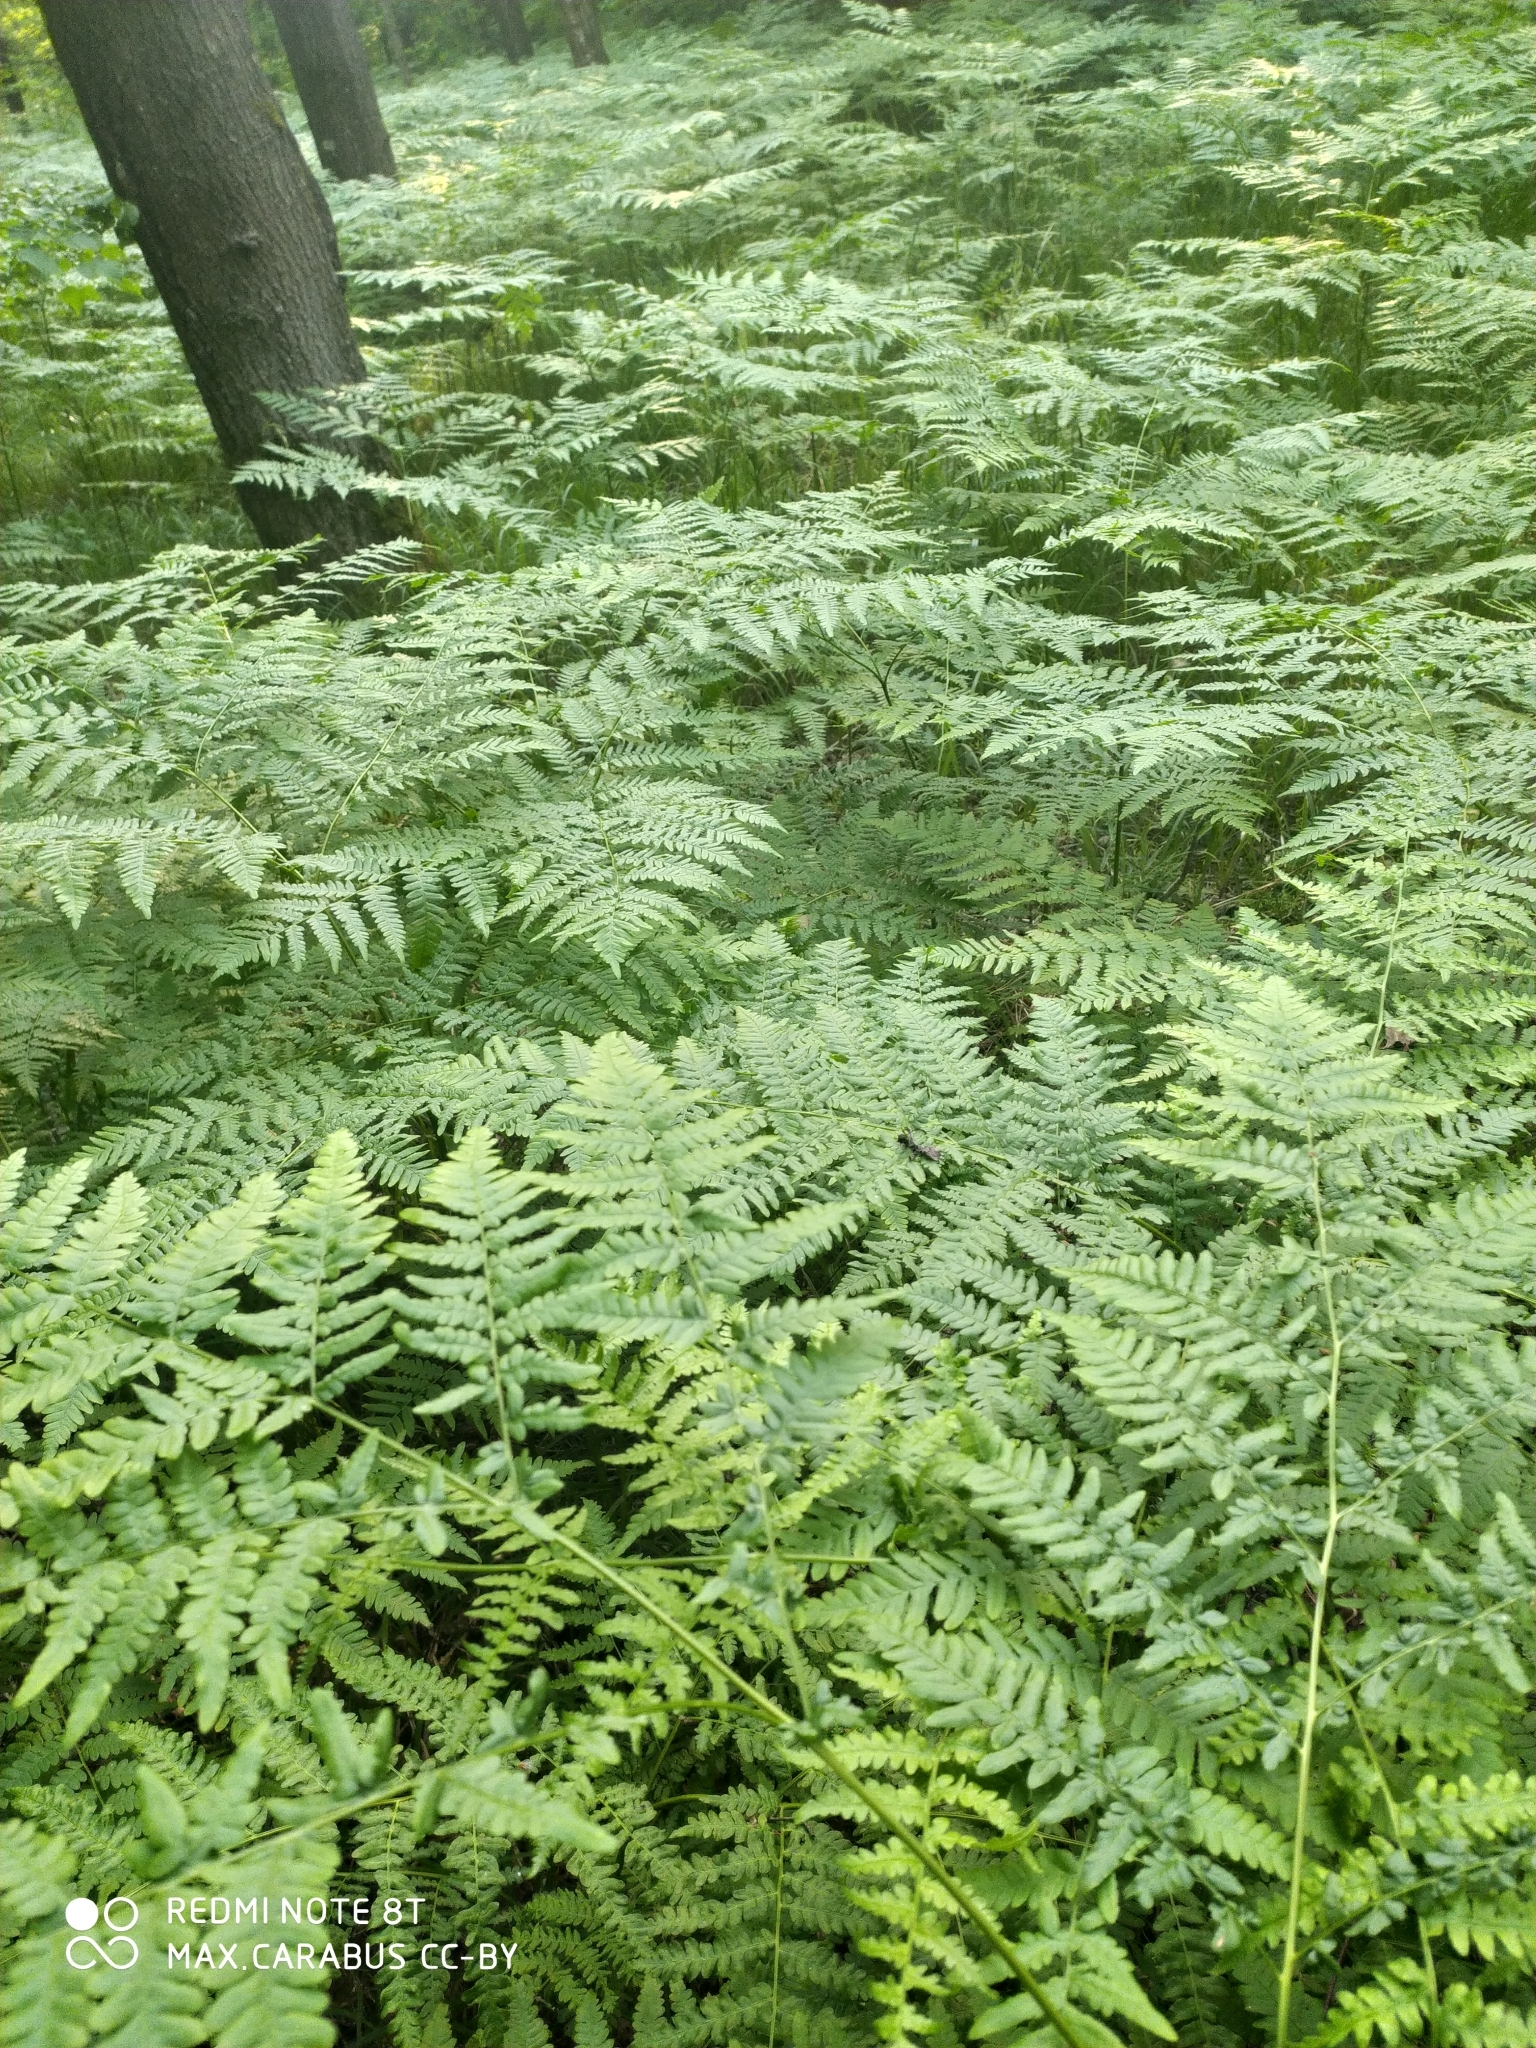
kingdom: Plantae
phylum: Tracheophyta
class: Polypodiopsida
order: Polypodiales
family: Dennstaedtiaceae
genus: Pteridium
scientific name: Pteridium aquilinum
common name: Bracken
